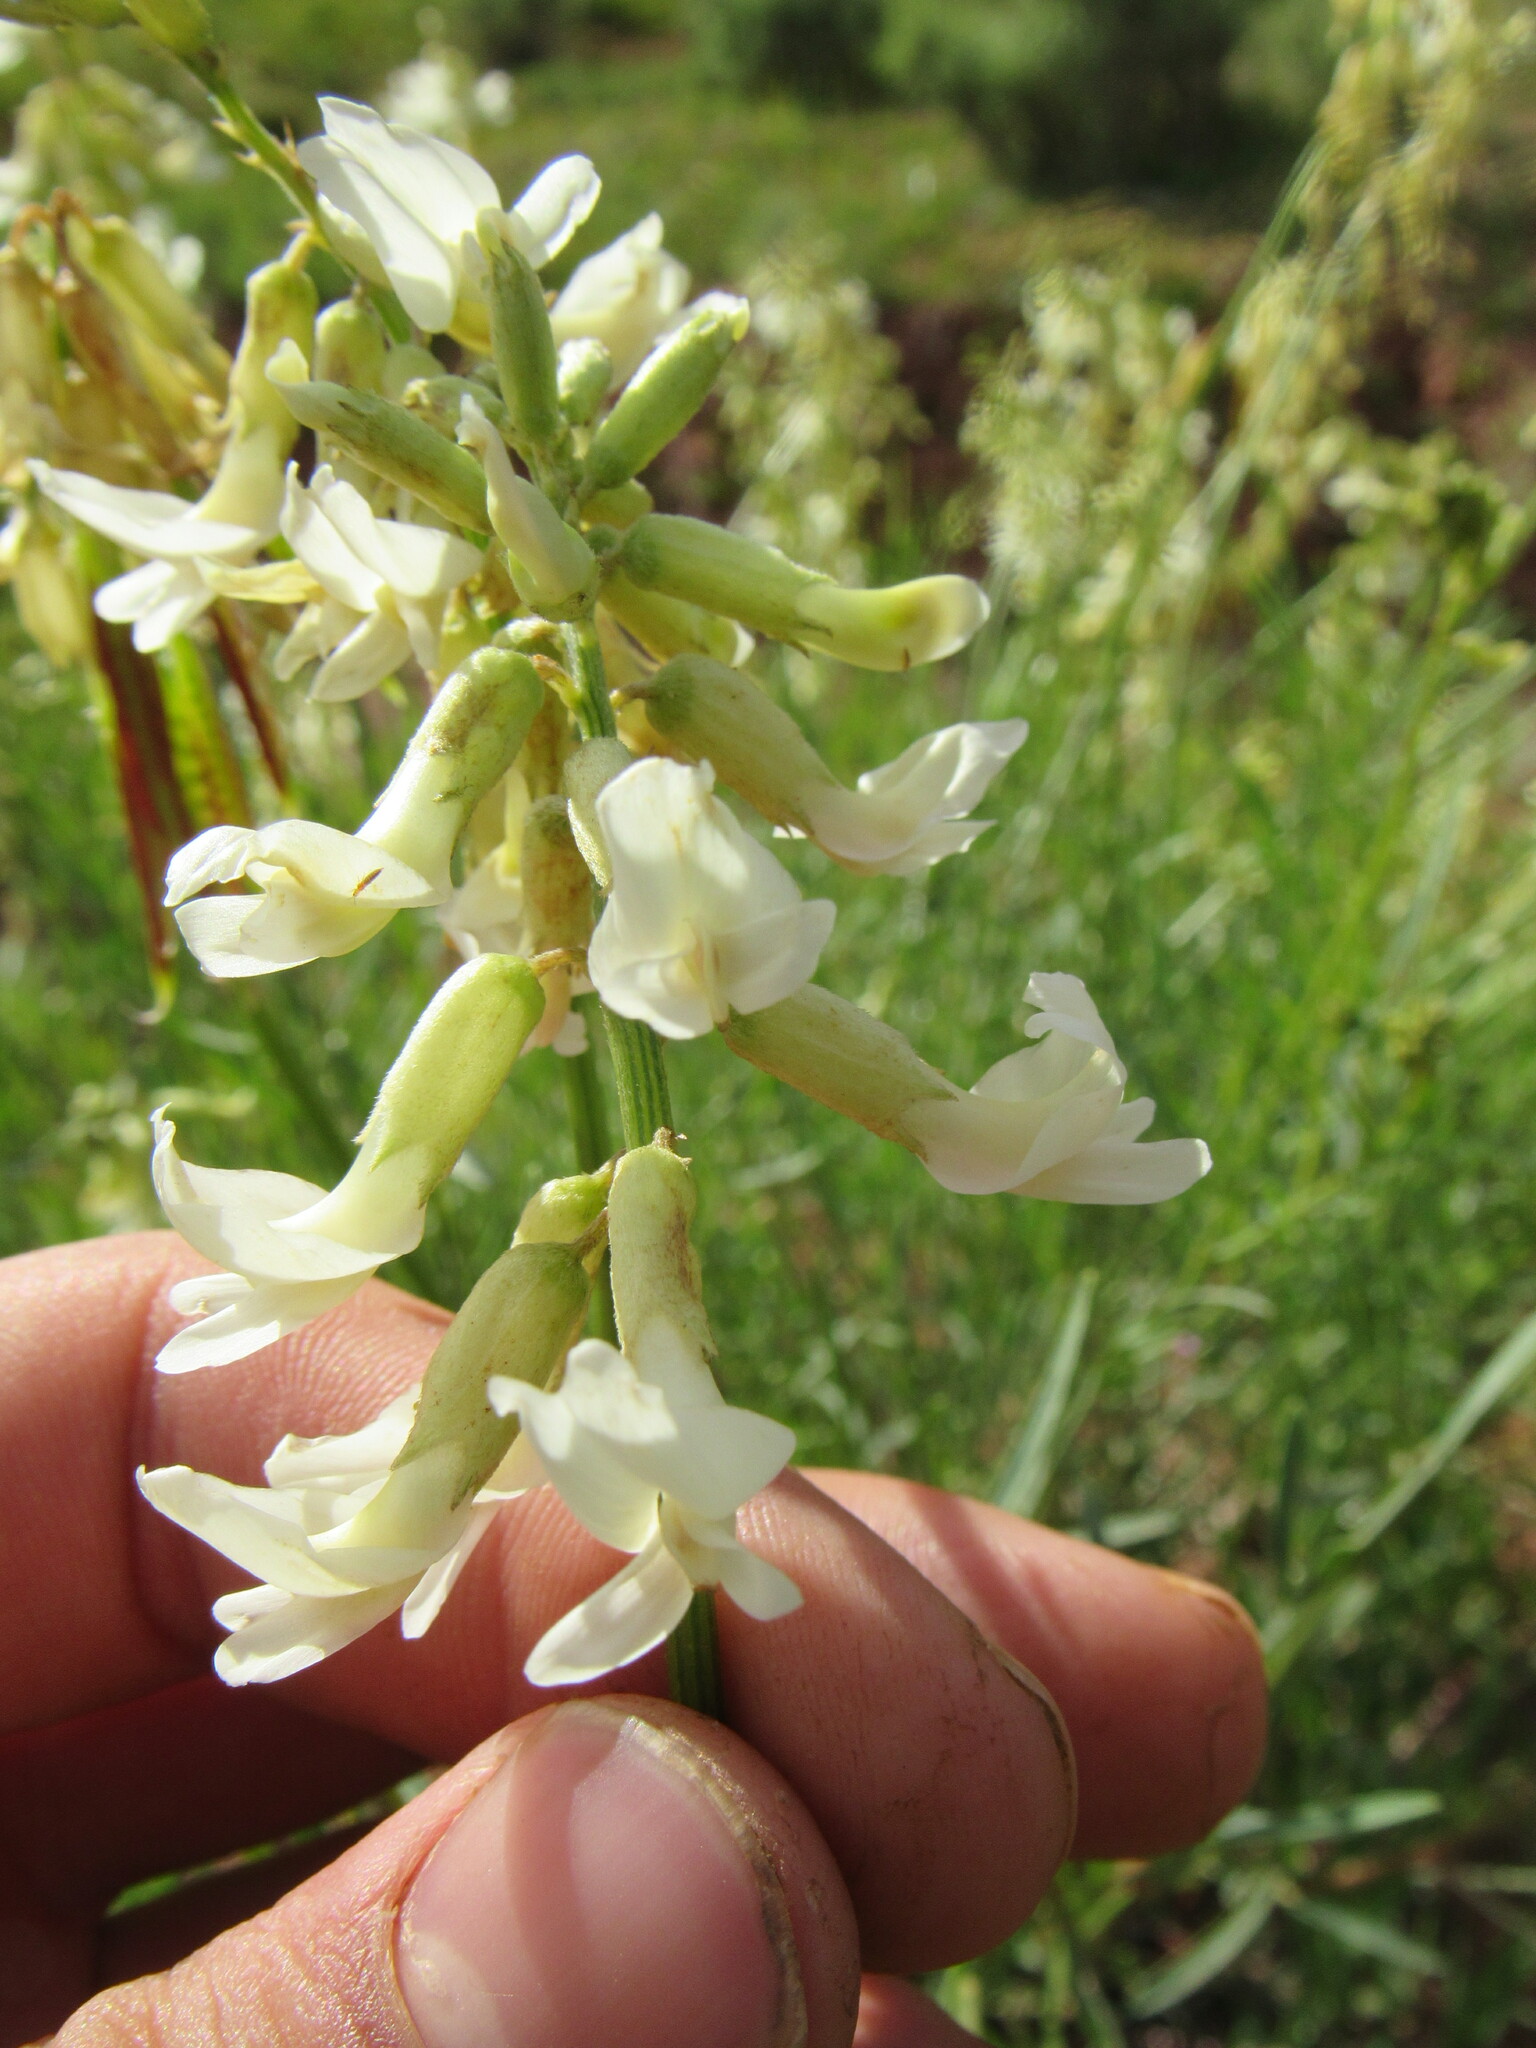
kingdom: Plantae
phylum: Tracheophyta
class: Magnoliopsida
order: Fabales
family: Fabaceae
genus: Astragalus
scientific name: Astragalus lonchocarpus
